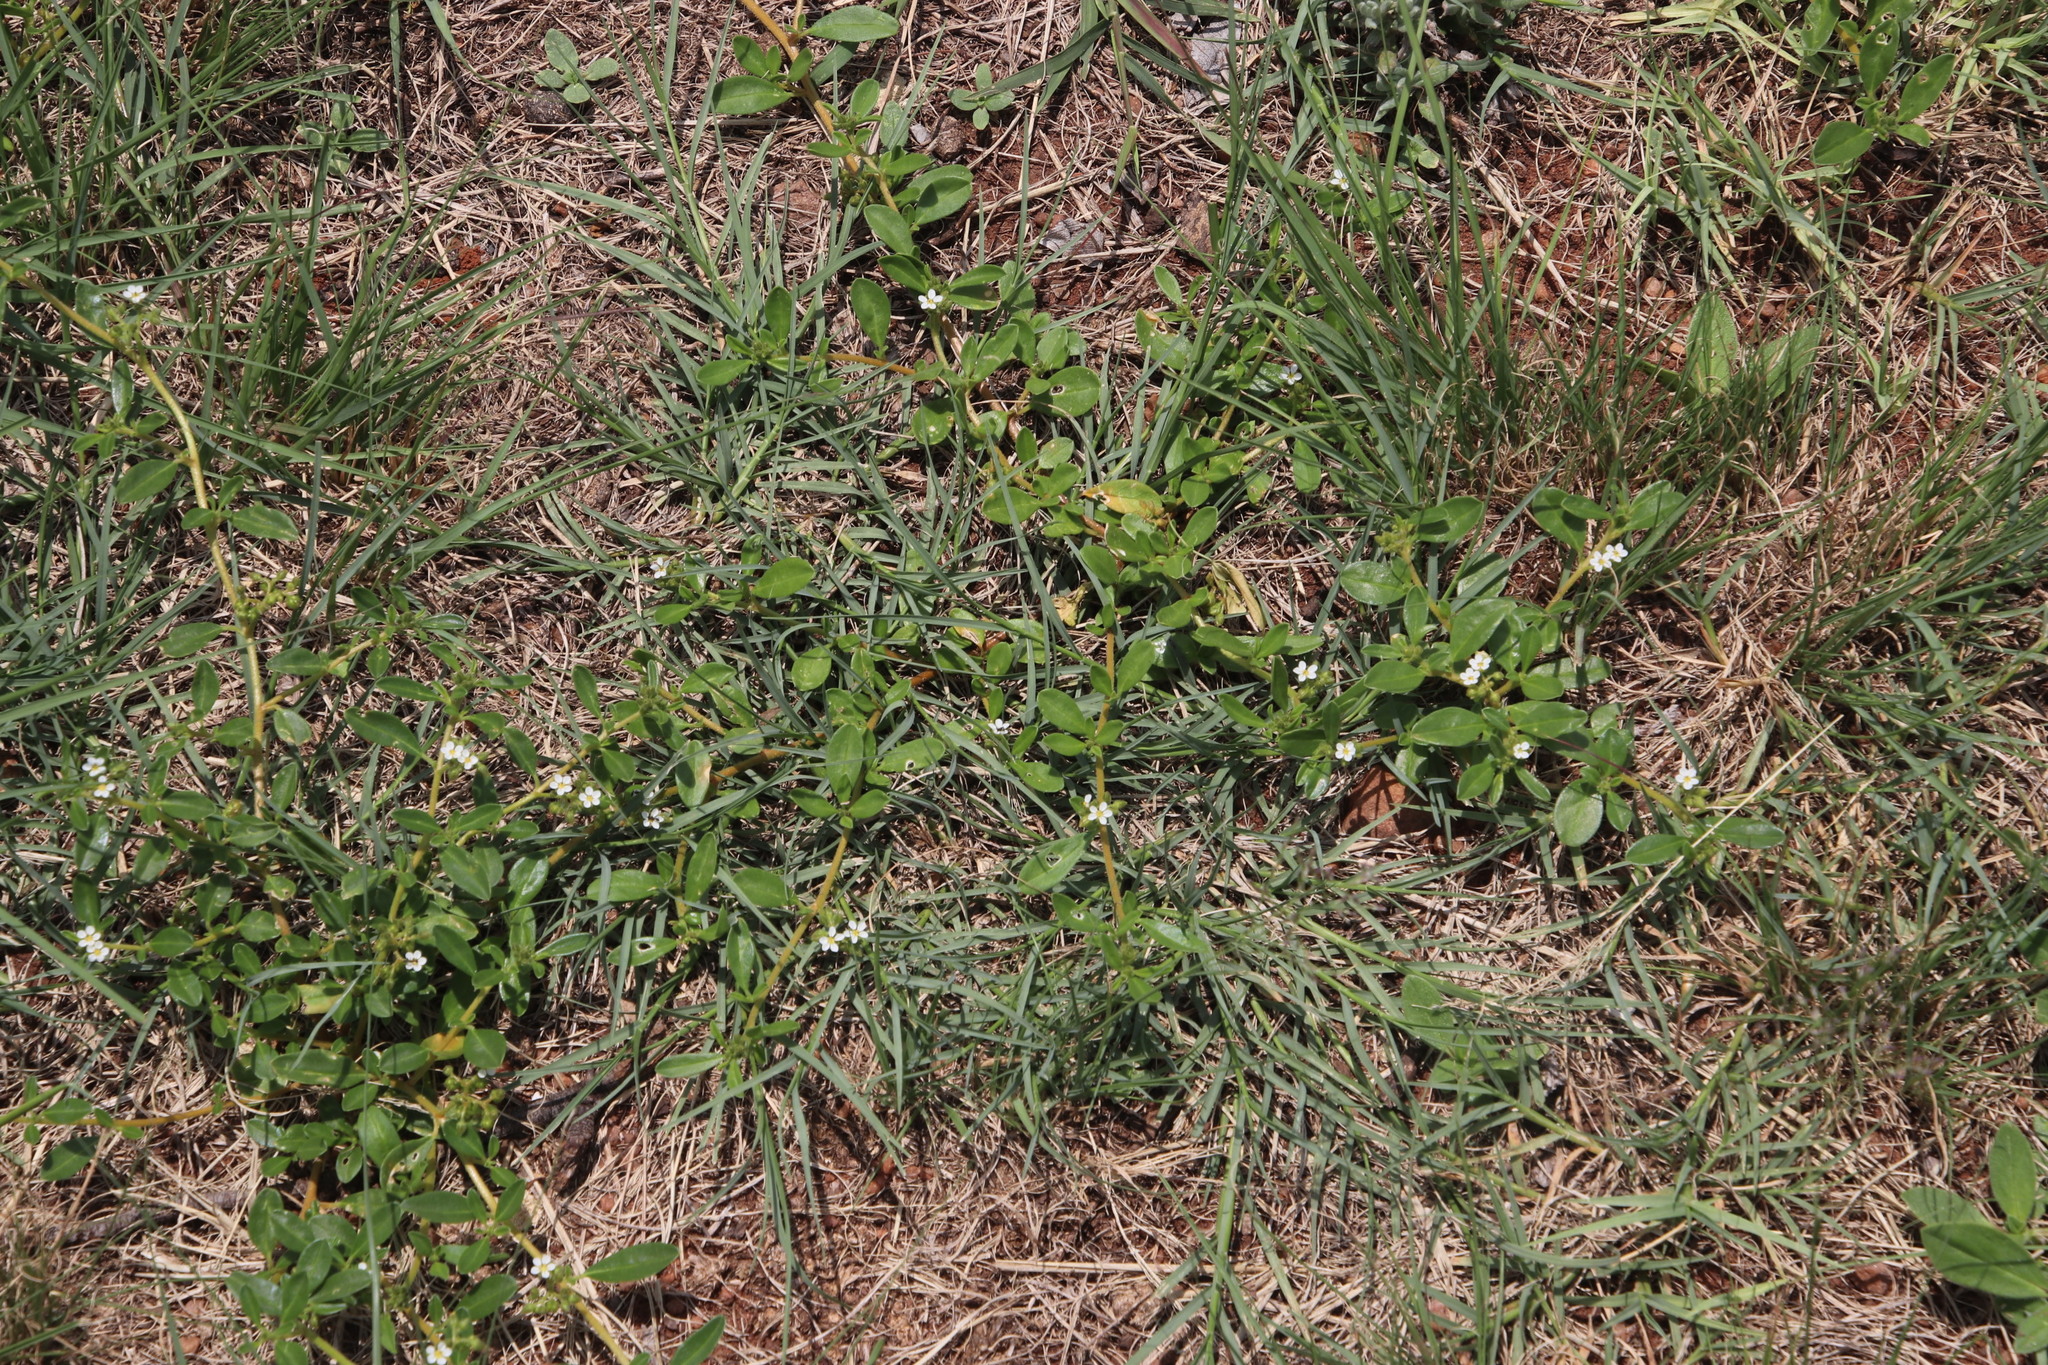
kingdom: Plantae
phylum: Tracheophyta
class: Magnoliopsida
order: Caryophyllales
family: Limeaceae
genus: Limeum
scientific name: Limeum viscosum
